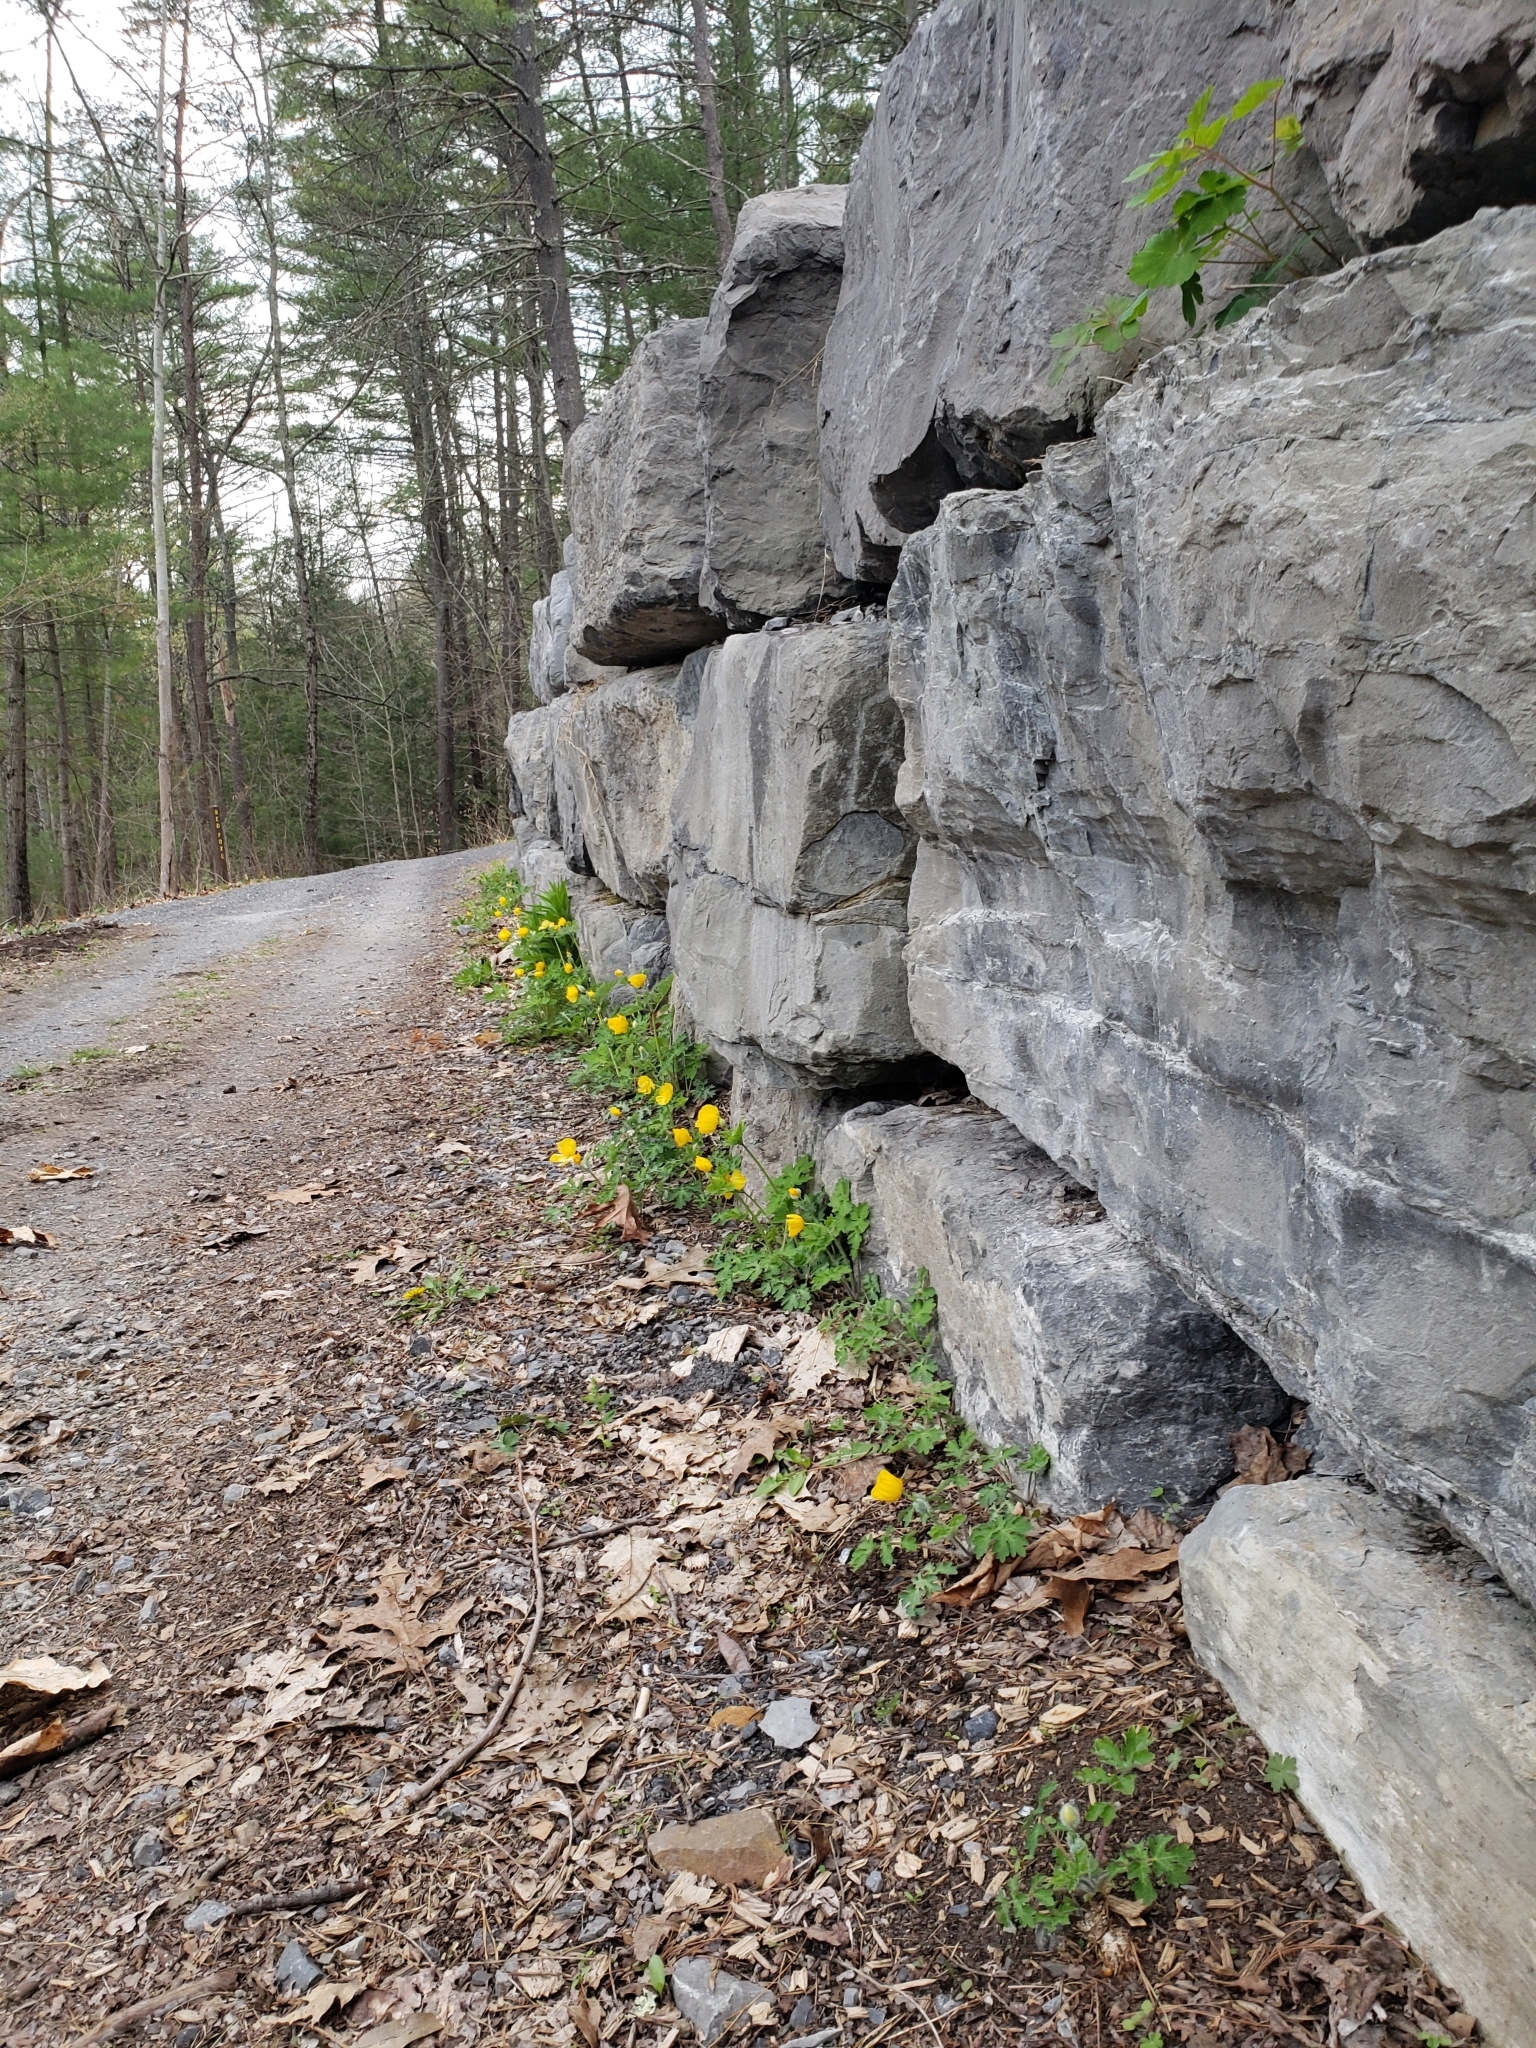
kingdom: Plantae
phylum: Tracheophyta
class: Magnoliopsida
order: Ranunculales
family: Papaveraceae
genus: Stylophorum
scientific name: Stylophorum diphyllum
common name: Celandine poppy
